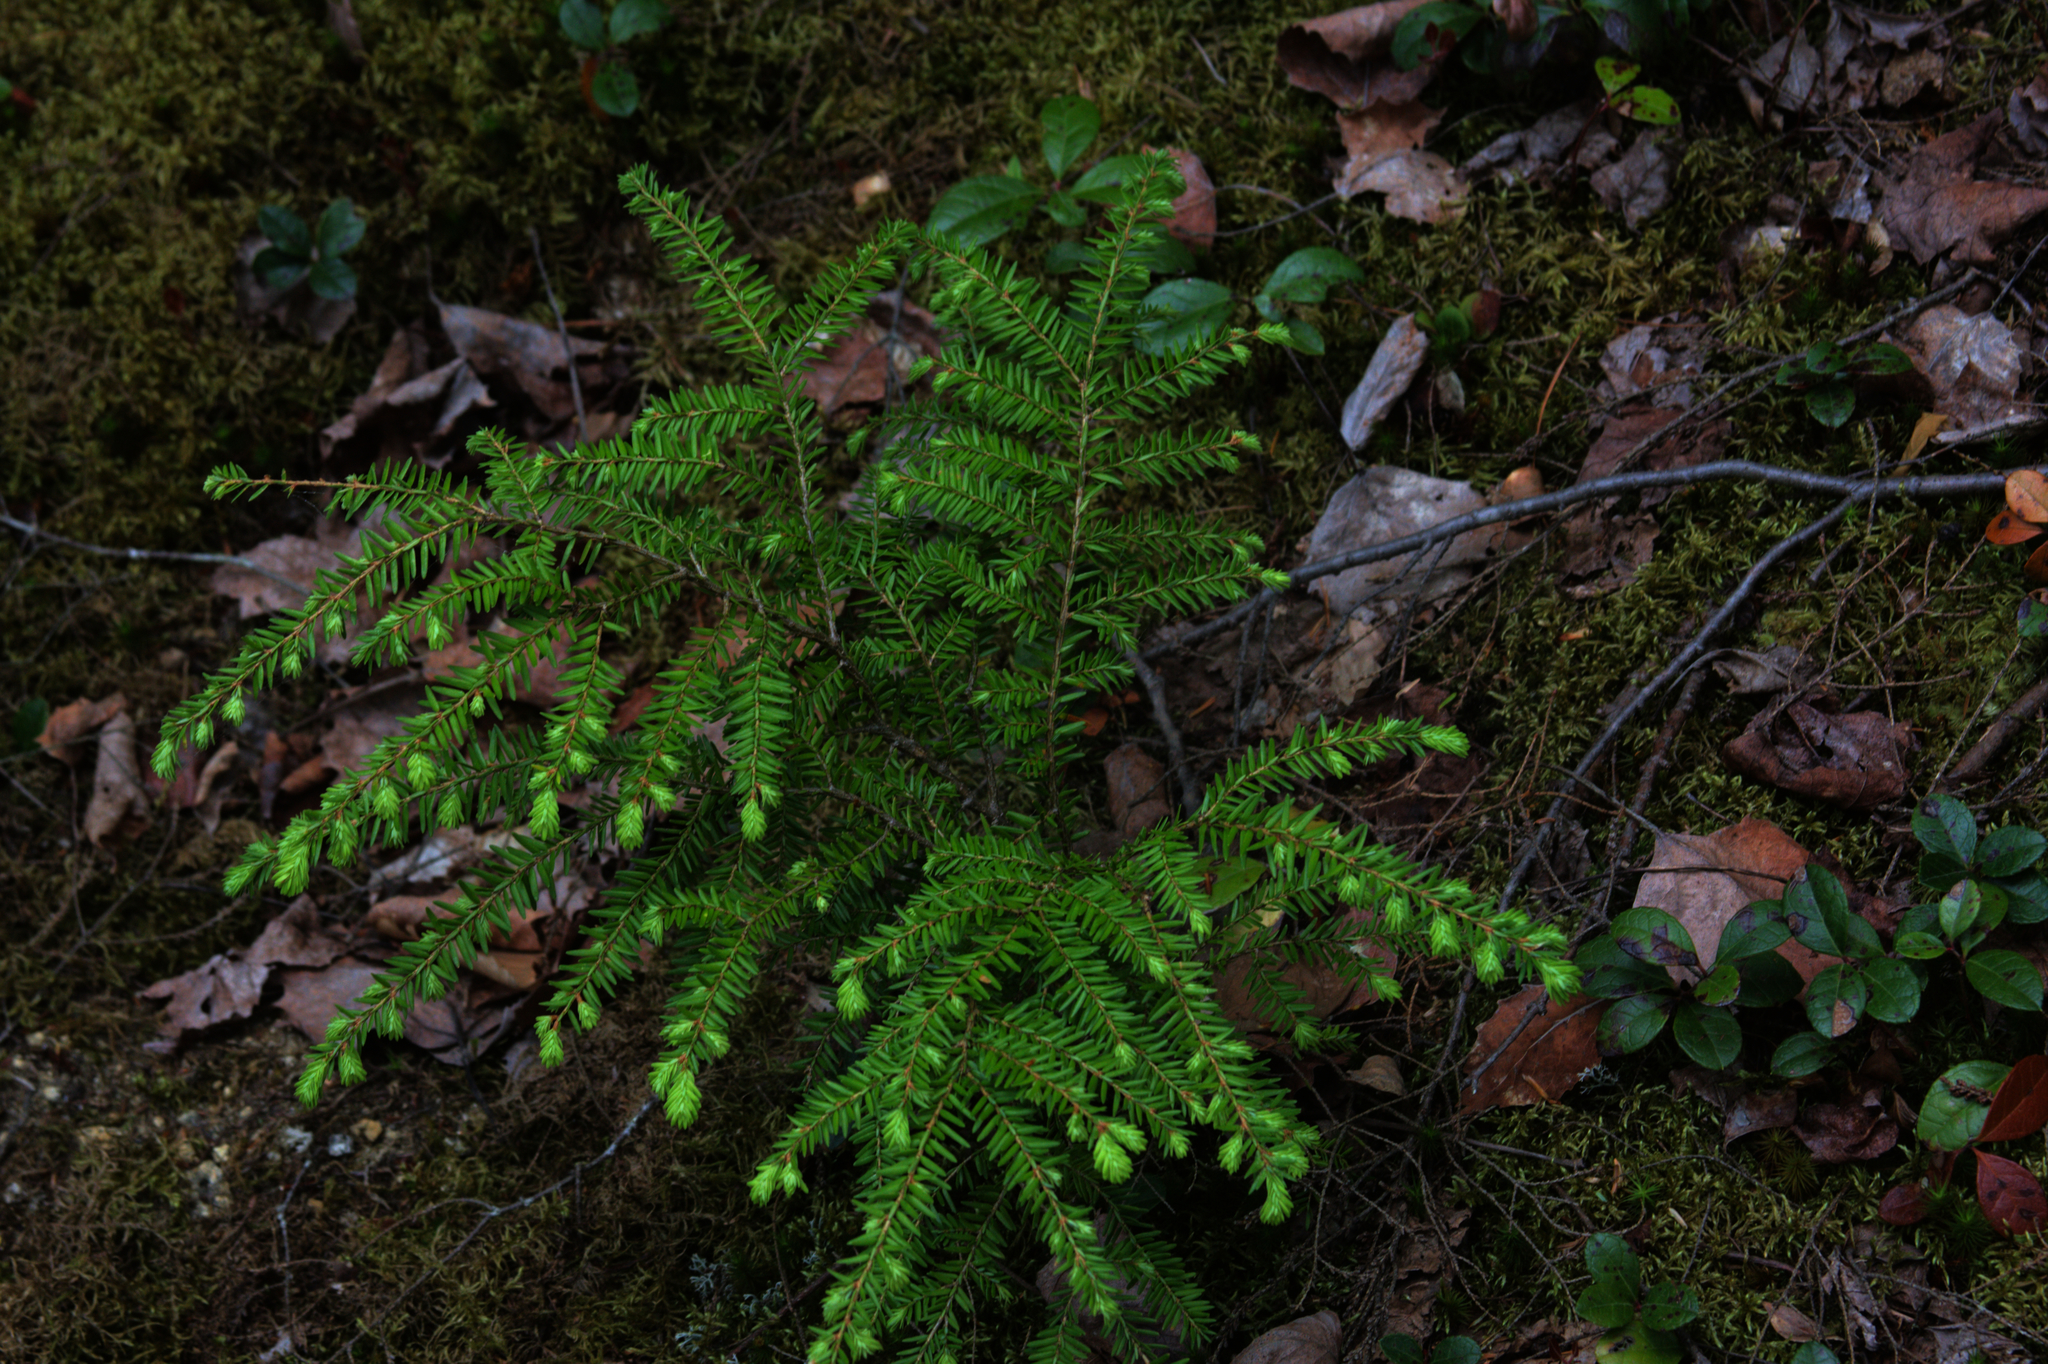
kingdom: Plantae
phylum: Tracheophyta
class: Magnoliopsida
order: Ericales
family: Ericaceae
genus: Gaultheria
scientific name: Gaultheria procumbens
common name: Checkerberry
